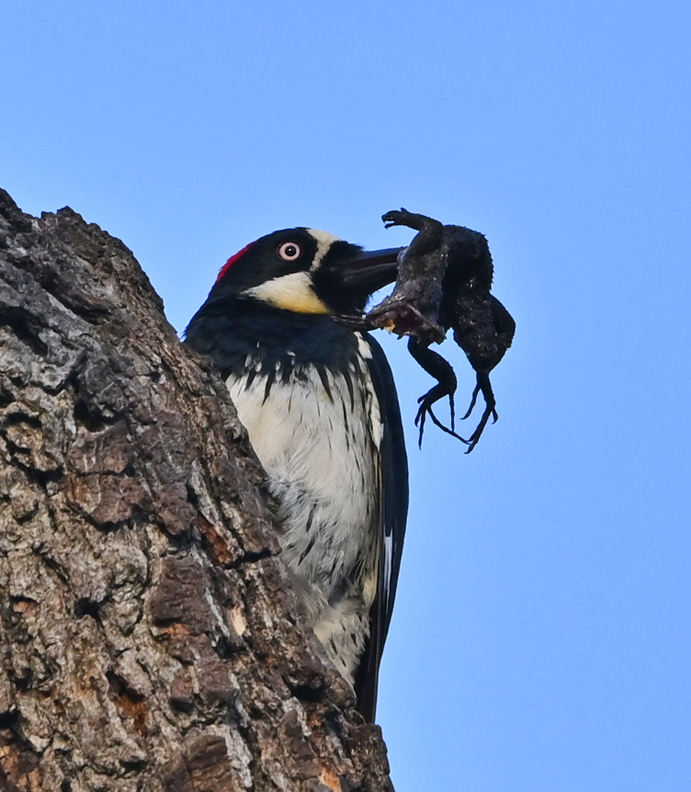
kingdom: Animalia
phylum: Chordata
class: Aves
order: Piciformes
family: Picidae
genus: Melanerpes
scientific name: Melanerpes formicivorus
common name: Acorn woodpecker
